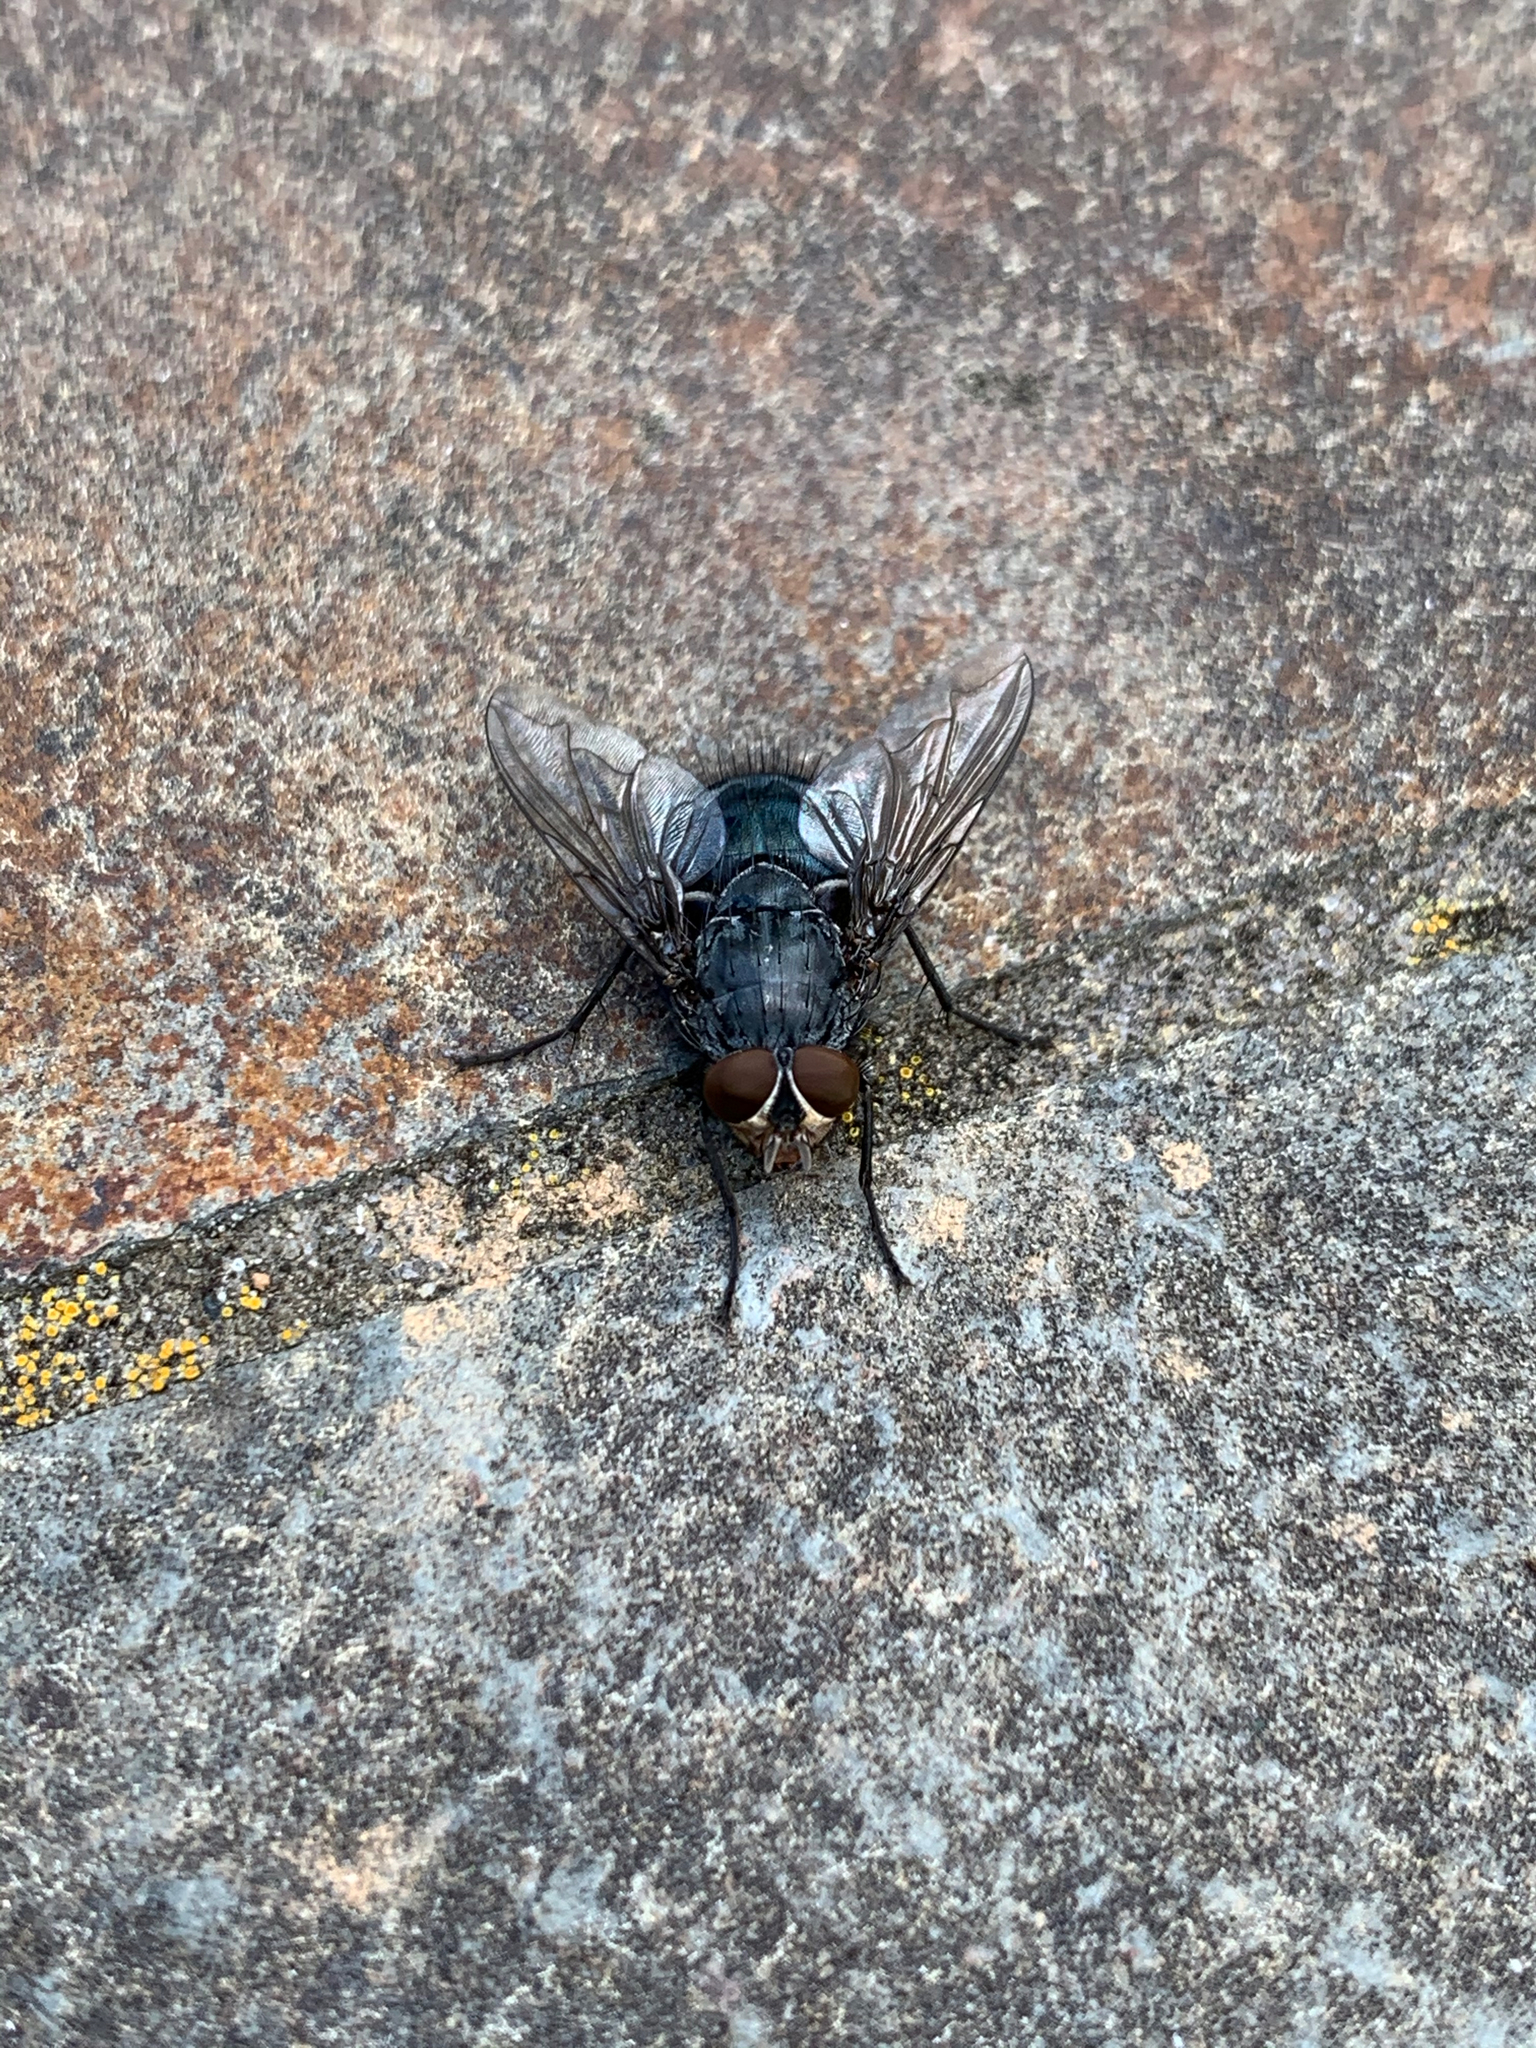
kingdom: Animalia
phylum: Arthropoda
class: Insecta
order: Diptera
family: Calliphoridae
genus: Calliphora
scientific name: Calliphora vicina
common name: Common blow flie
